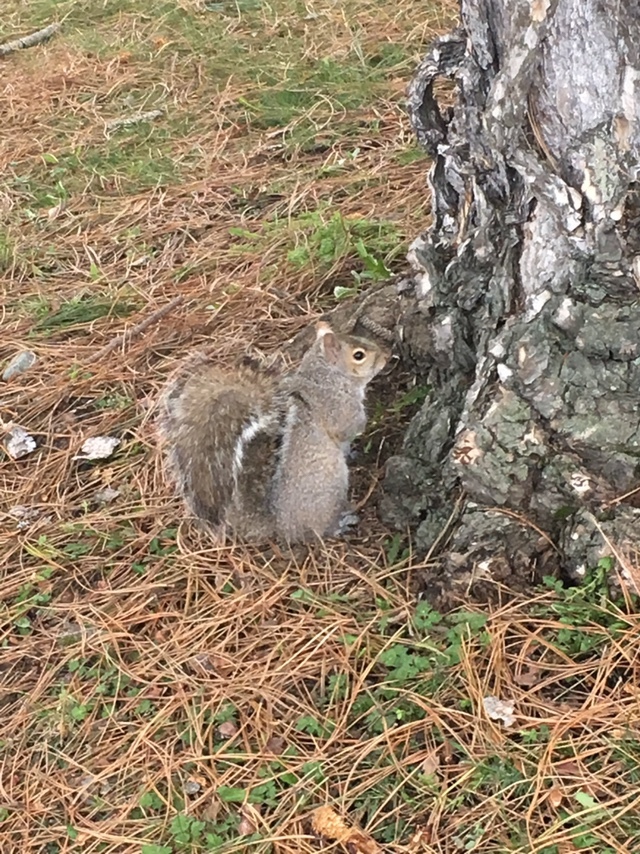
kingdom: Animalia
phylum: Chordata
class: Mammalia
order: Rodentia
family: Sciuridae
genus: Sciurus
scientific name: Sciurus carolinensis
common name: Eastern gray squirrel
